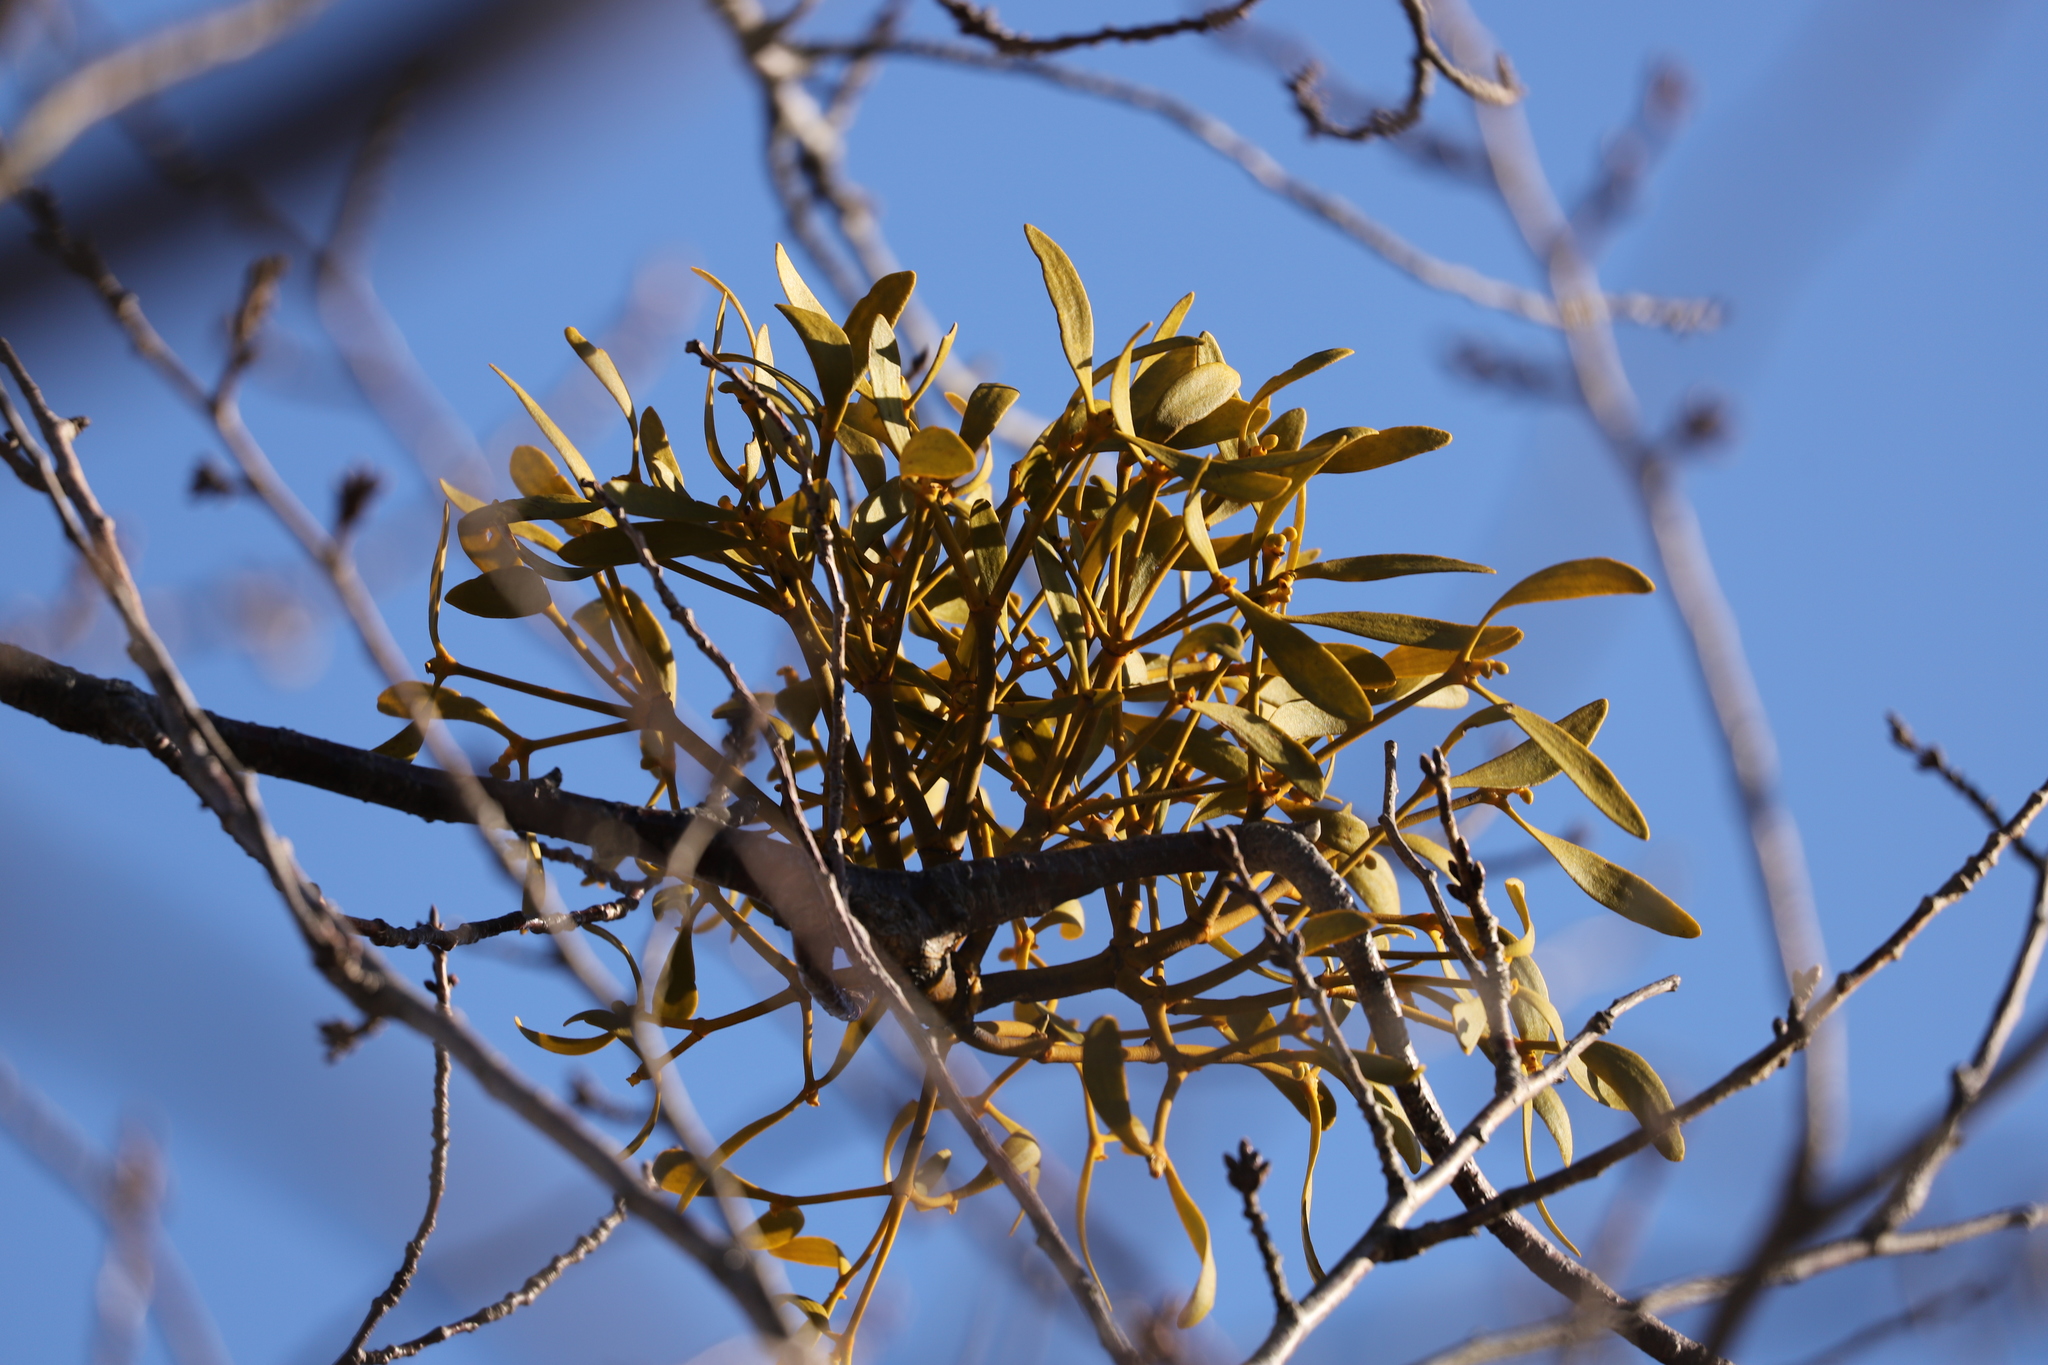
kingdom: Plantae
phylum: Tracheophyta
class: Magnoliopsida
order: Santalales
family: Viscaceae
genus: Viscum
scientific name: Viscum album
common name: Mistletoe
